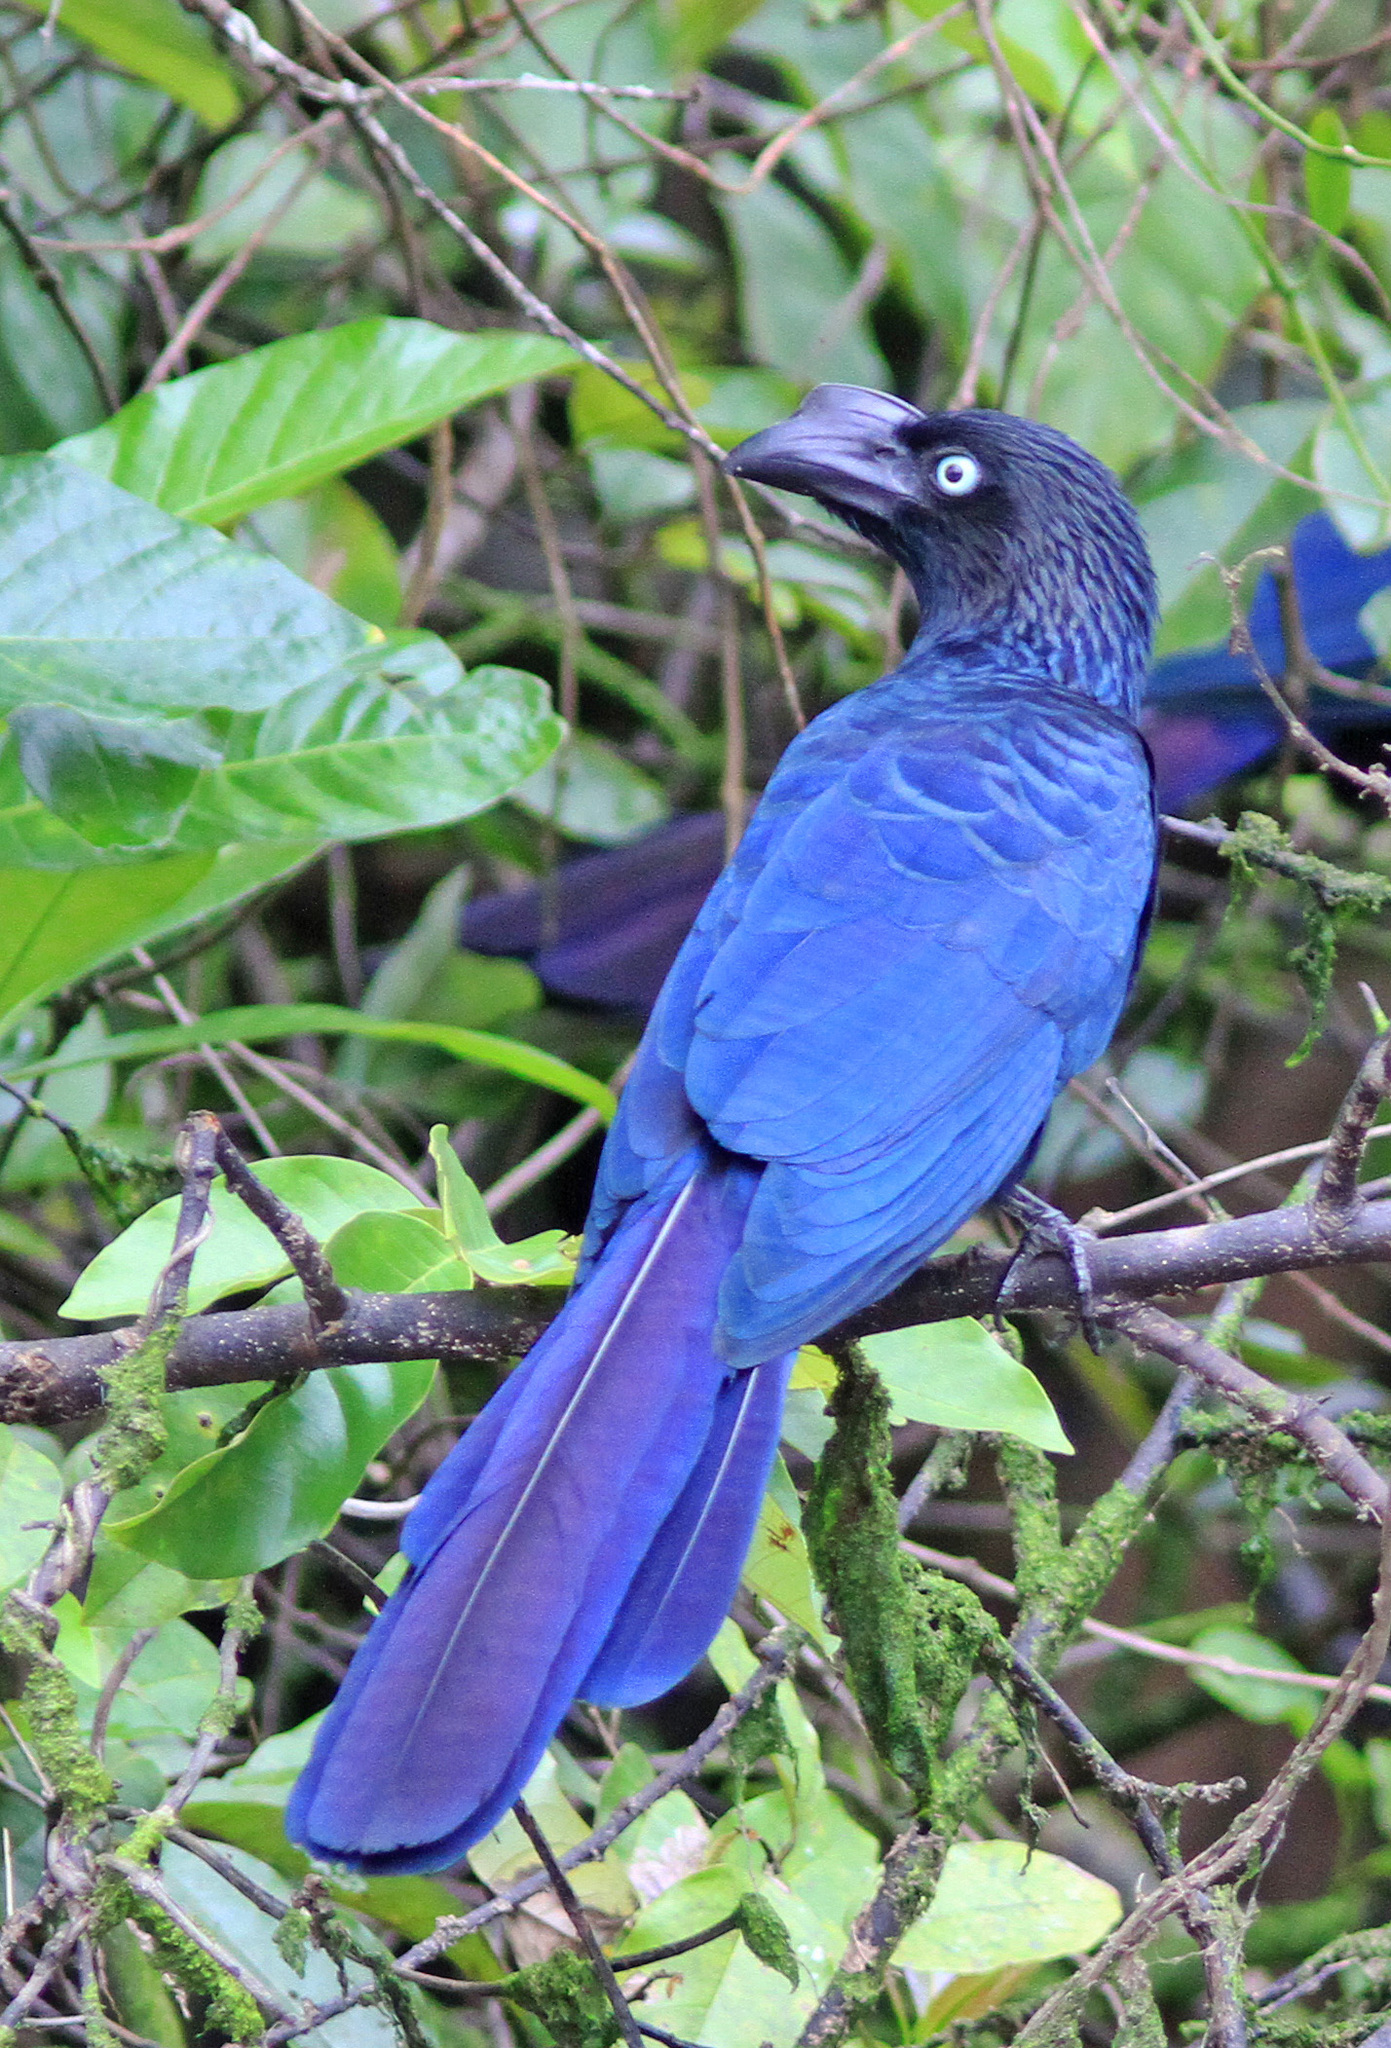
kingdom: Animalia
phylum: Chordata
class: Aves
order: Cuculiformes
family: Cuculidae
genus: Crotophaga
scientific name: Crotophaga major
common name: Greater ani
